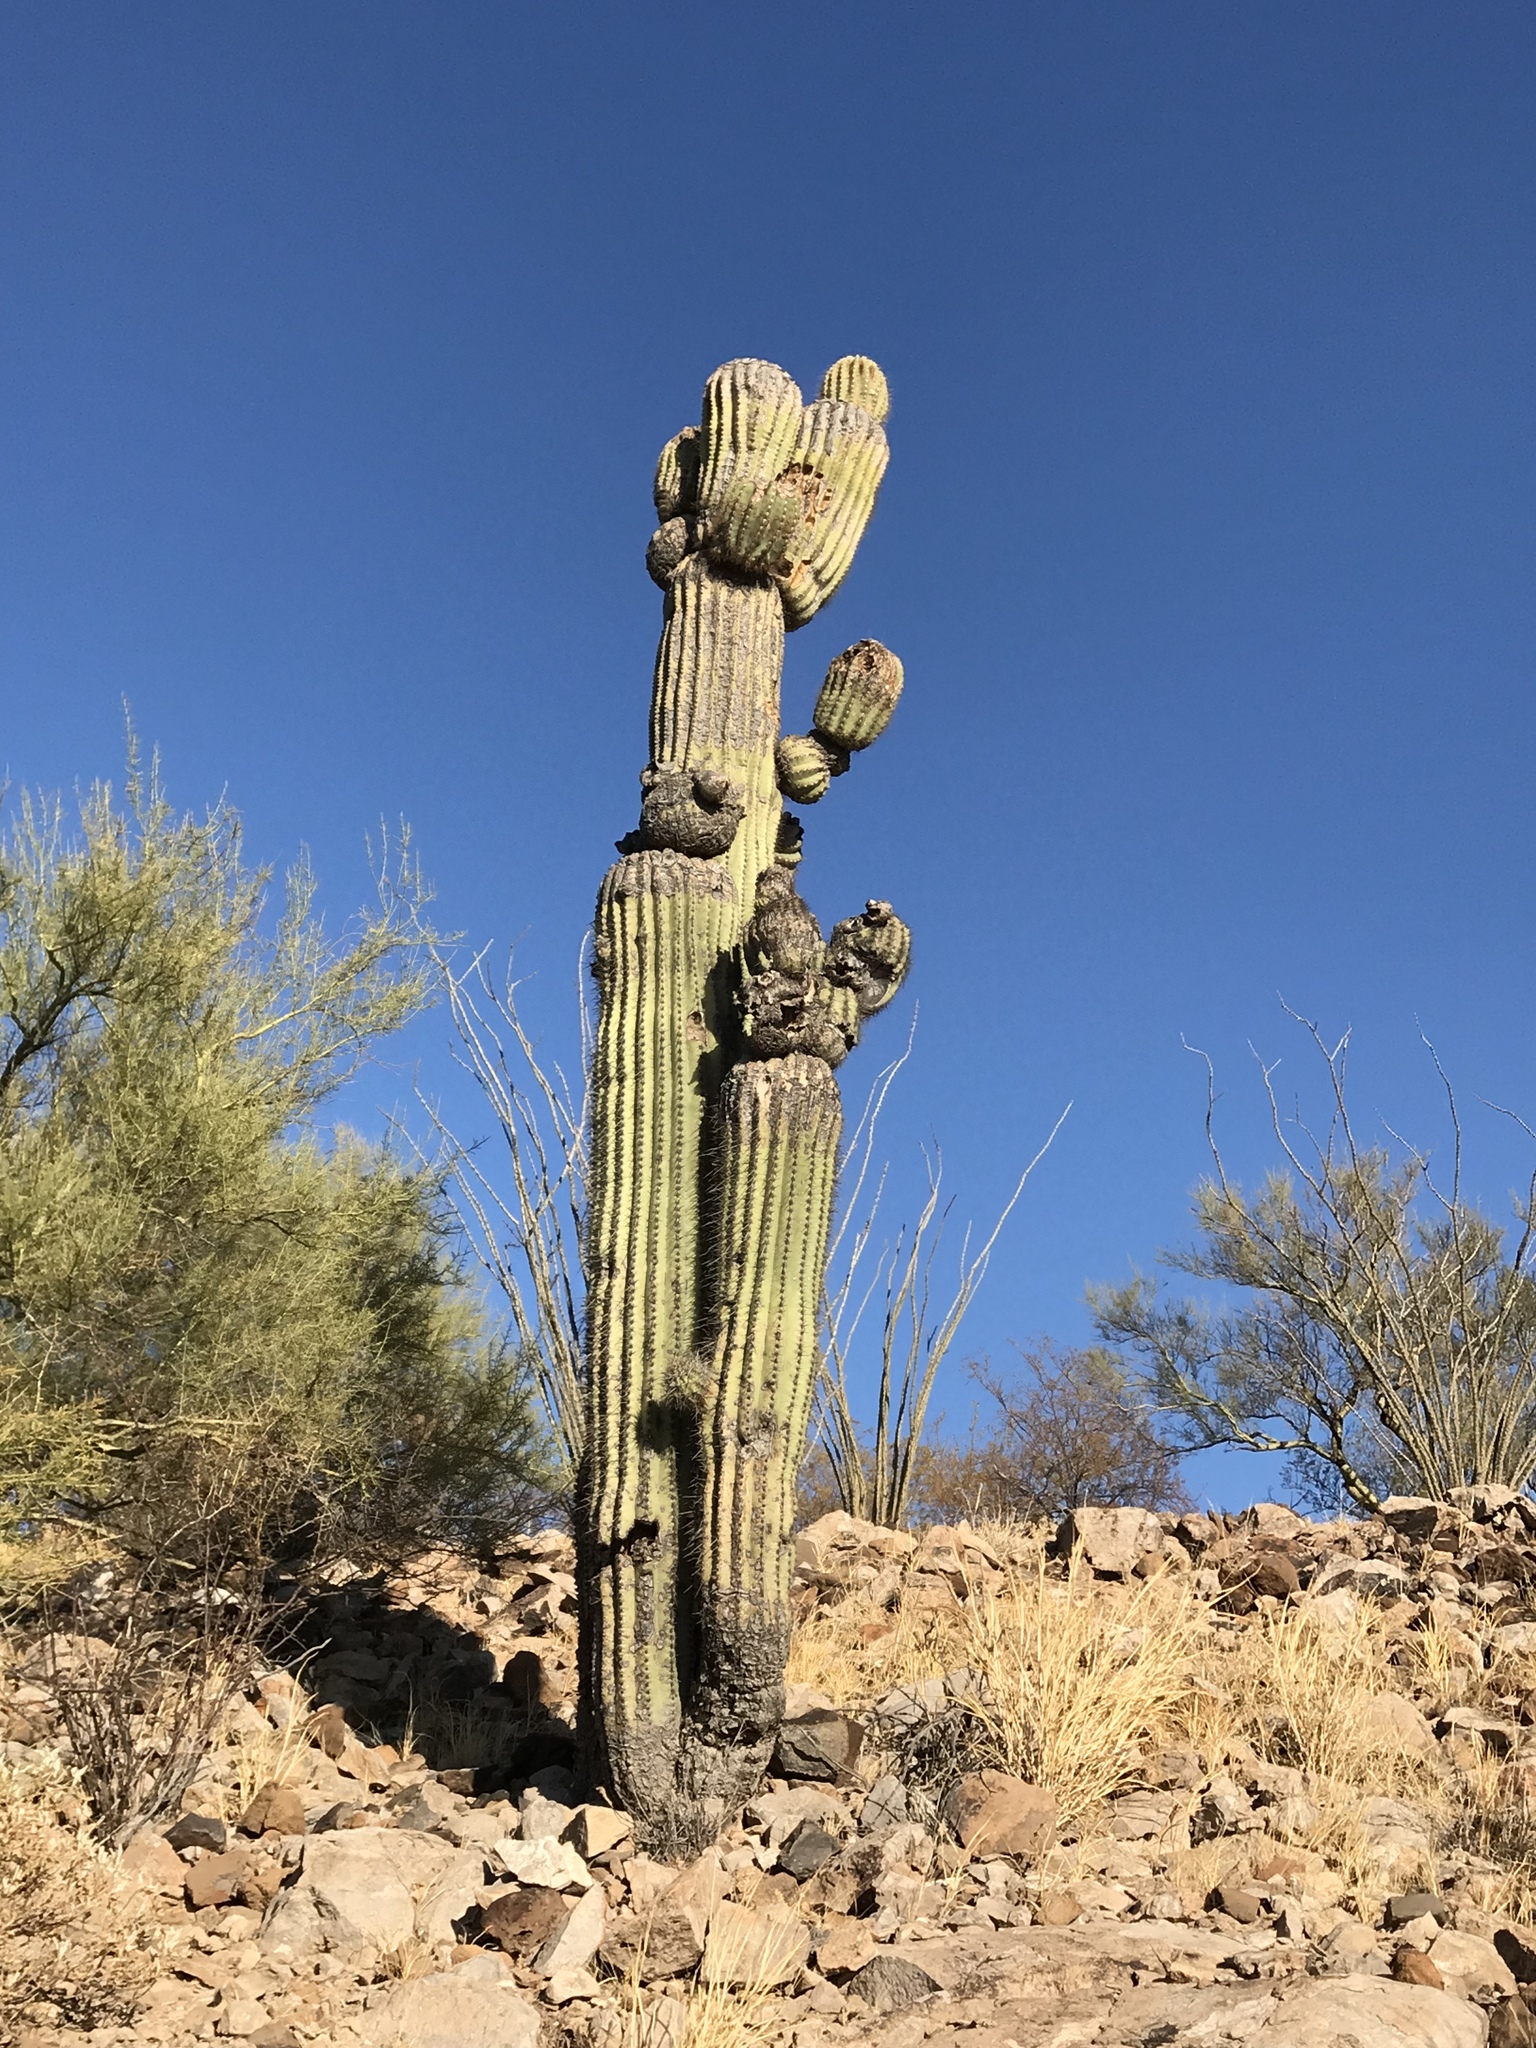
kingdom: Plantae
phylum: Tracheophyta
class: Magnoliopsida
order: Caryophyllales
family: Cactaceae
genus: Carnegiea
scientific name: Carnegiea gigantea
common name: Saguaro
